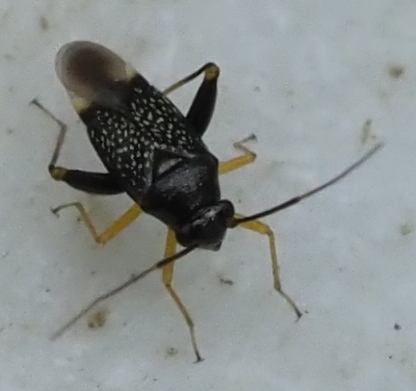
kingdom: Animalia
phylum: Arthropoda
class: Insecta
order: Hemiptera
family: Miridae
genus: Microtechnites
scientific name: Microtechnites bractatus
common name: Garden fleahopper
